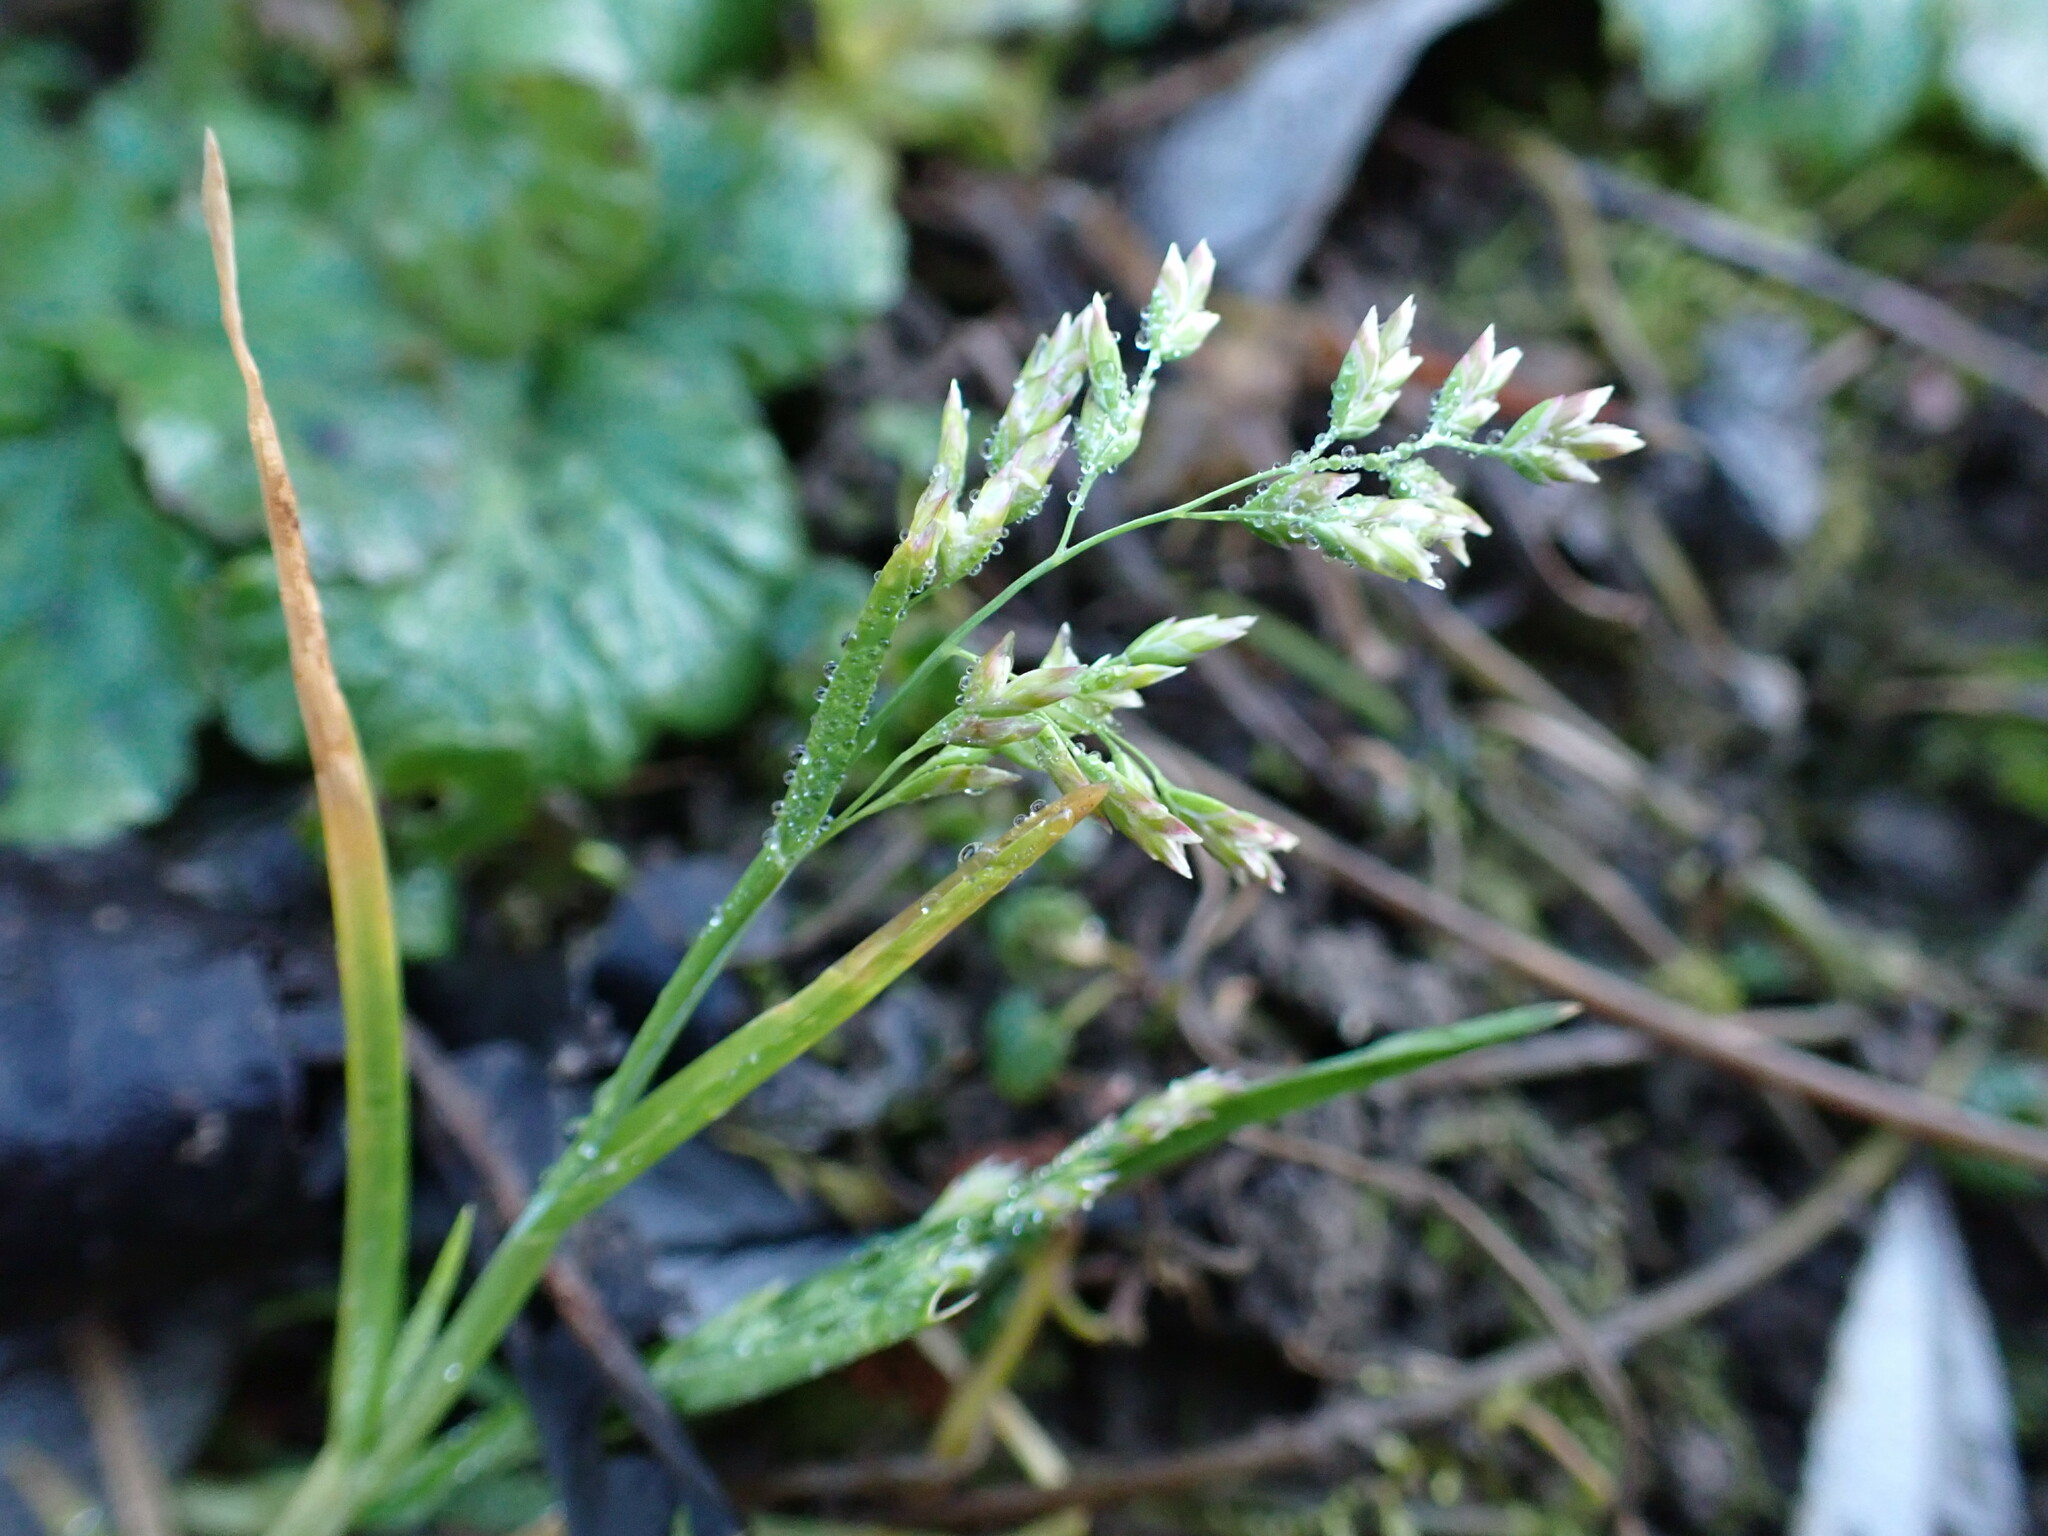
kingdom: Plantae
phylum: Tracheophyta
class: Liliopsida
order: Poales
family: Poaceae
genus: Poa
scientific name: Poa annua
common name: Annual bluegrass
